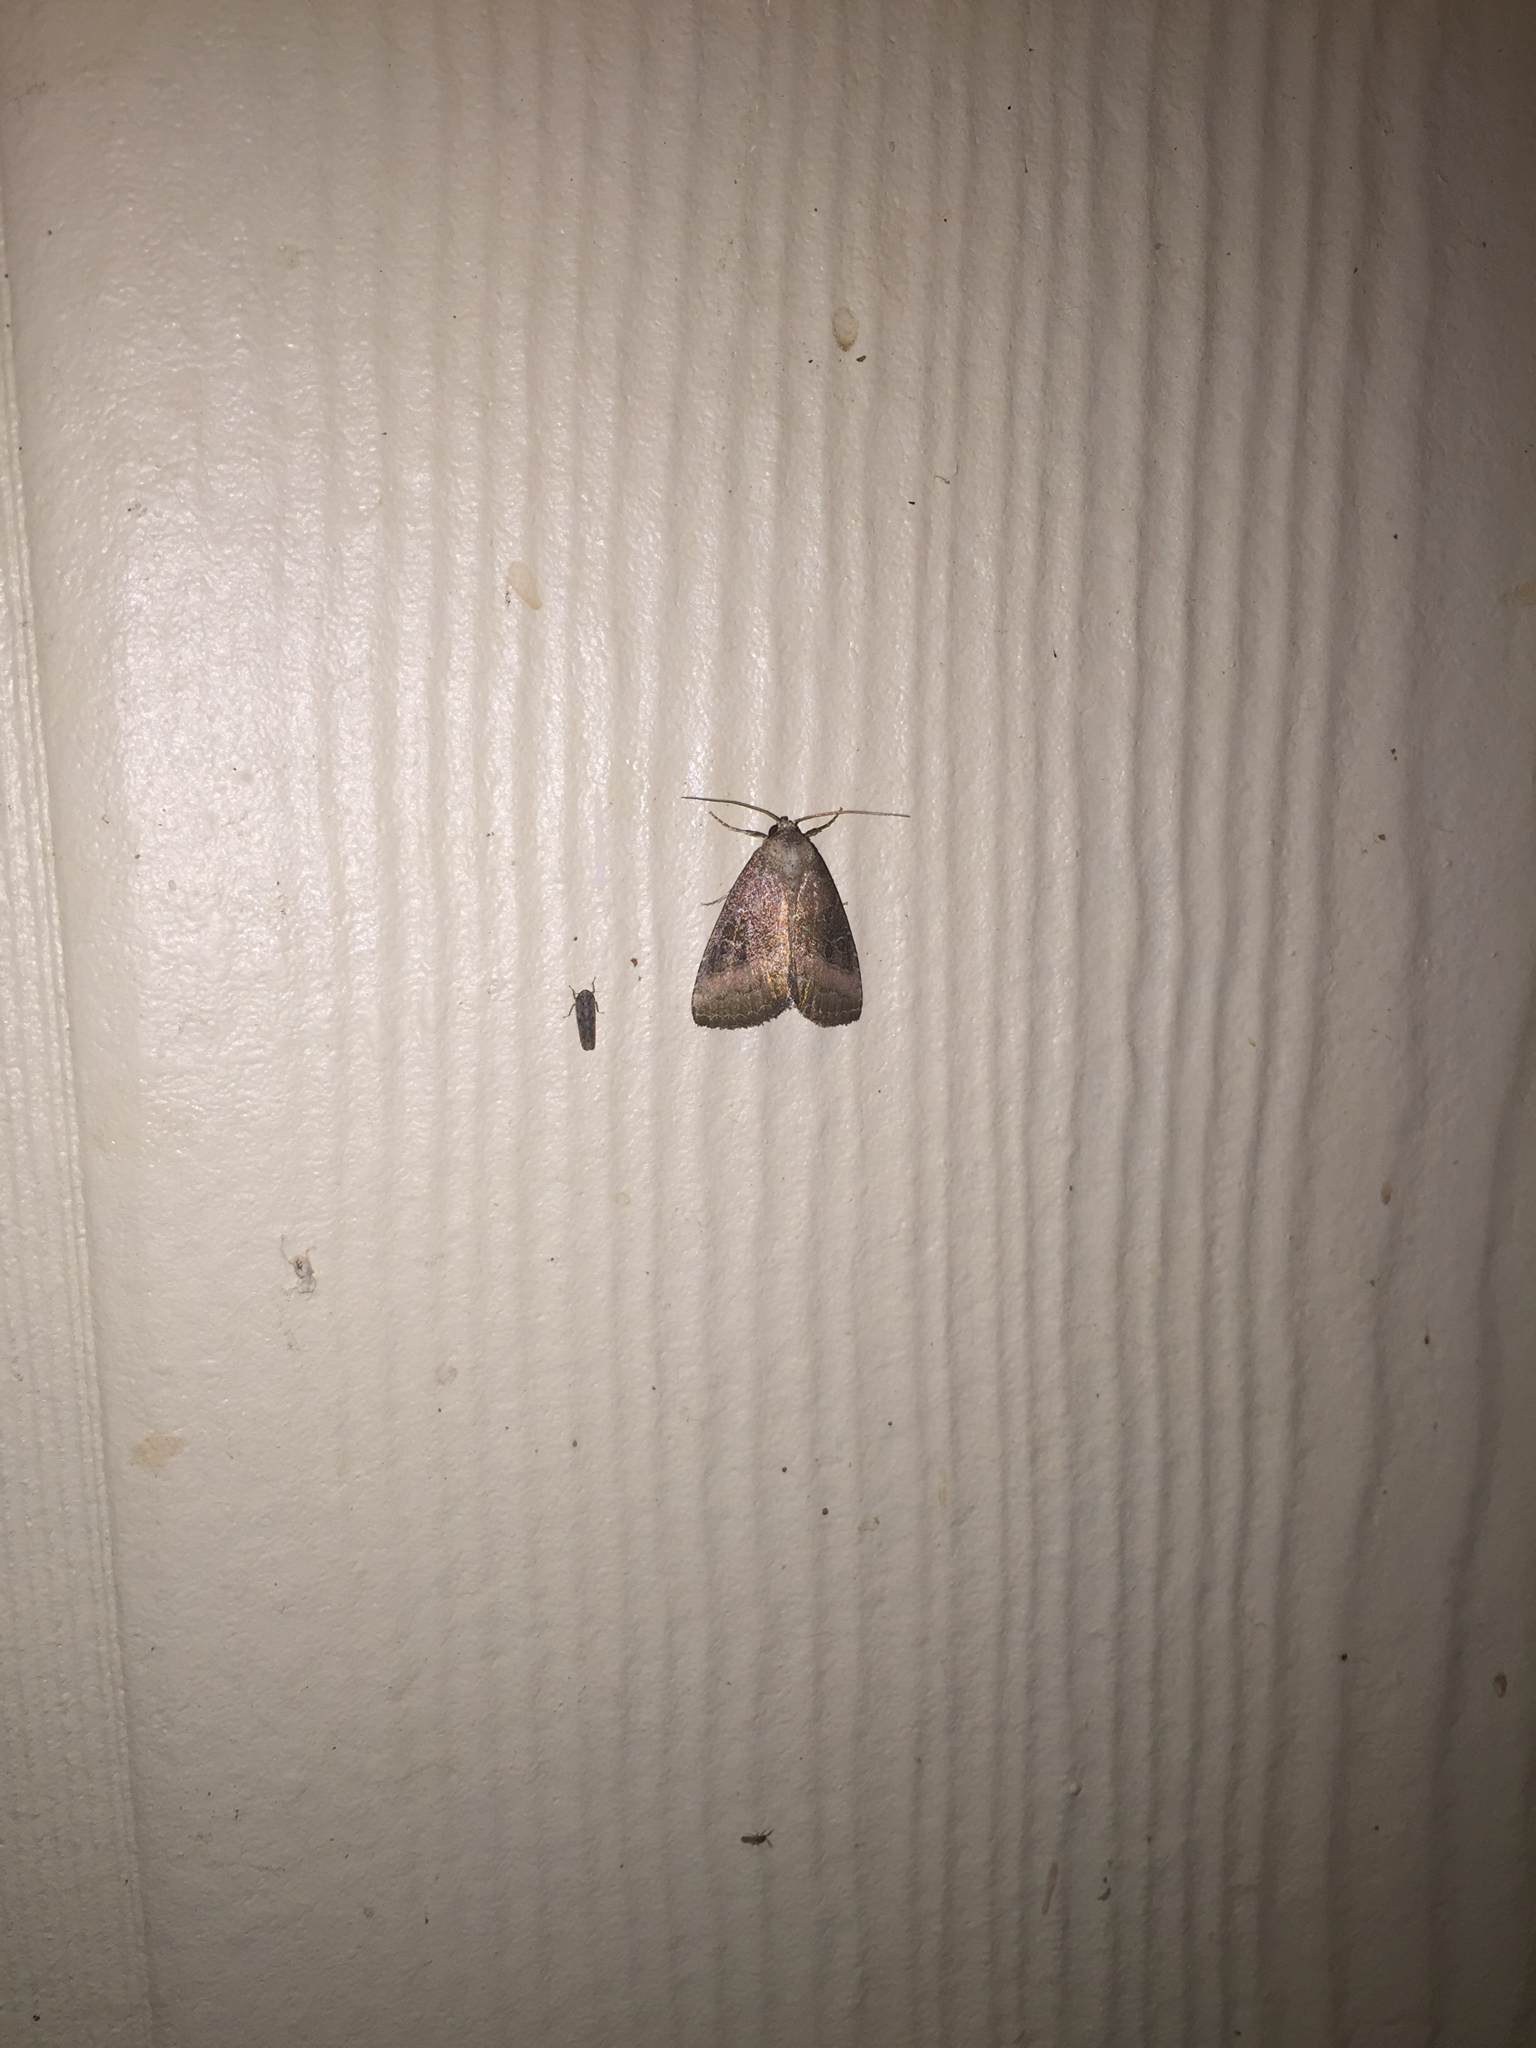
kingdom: Animalia
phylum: Arthropoda
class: Insecta
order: Lepidoptera
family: Noctuidae
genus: Ogdoconta
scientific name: Ogdoconta cinereola
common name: Common pinkband
